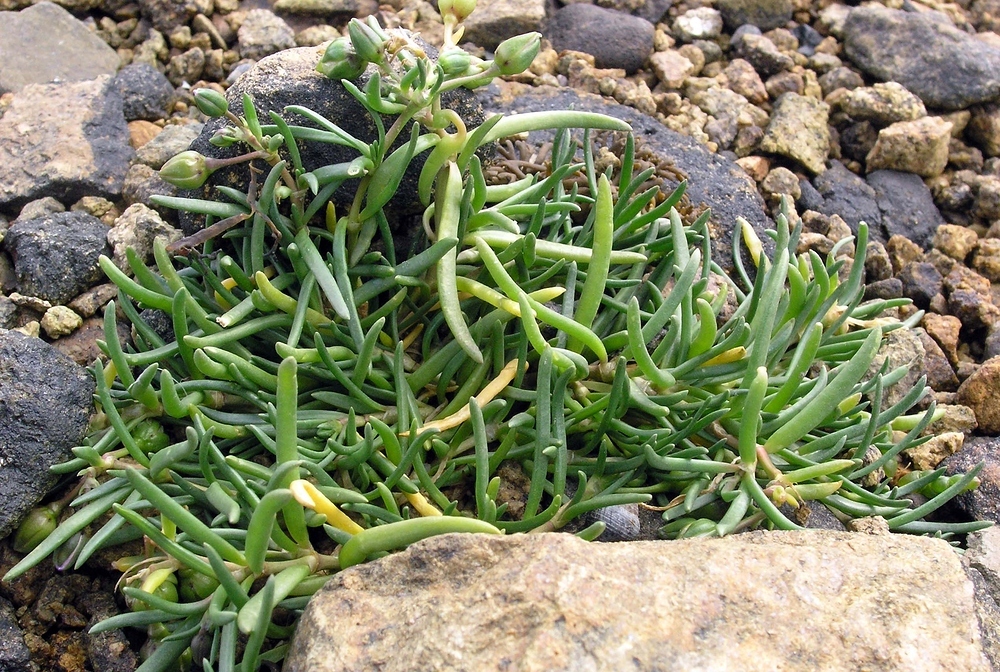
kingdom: Plantae
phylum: Tracheophyta
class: Magnoliopsida
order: Caryophyllales
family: Amaranthaceae
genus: Suaeda
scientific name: Suaeda maritima
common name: Annual sea-blite
